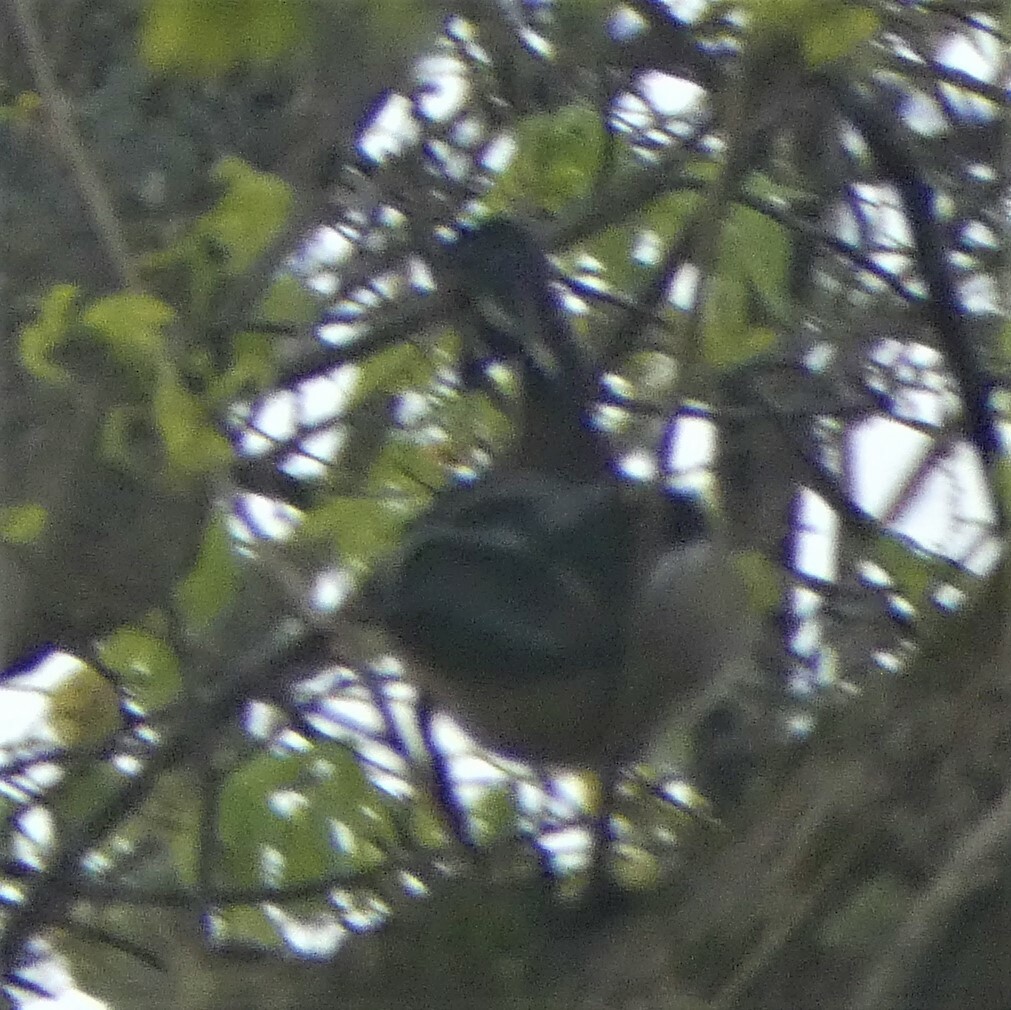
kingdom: Animalia
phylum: Chordata
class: Aves
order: Anseriformes
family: Anatidae
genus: Aix
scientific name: Aix sponsa
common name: Wood duck
